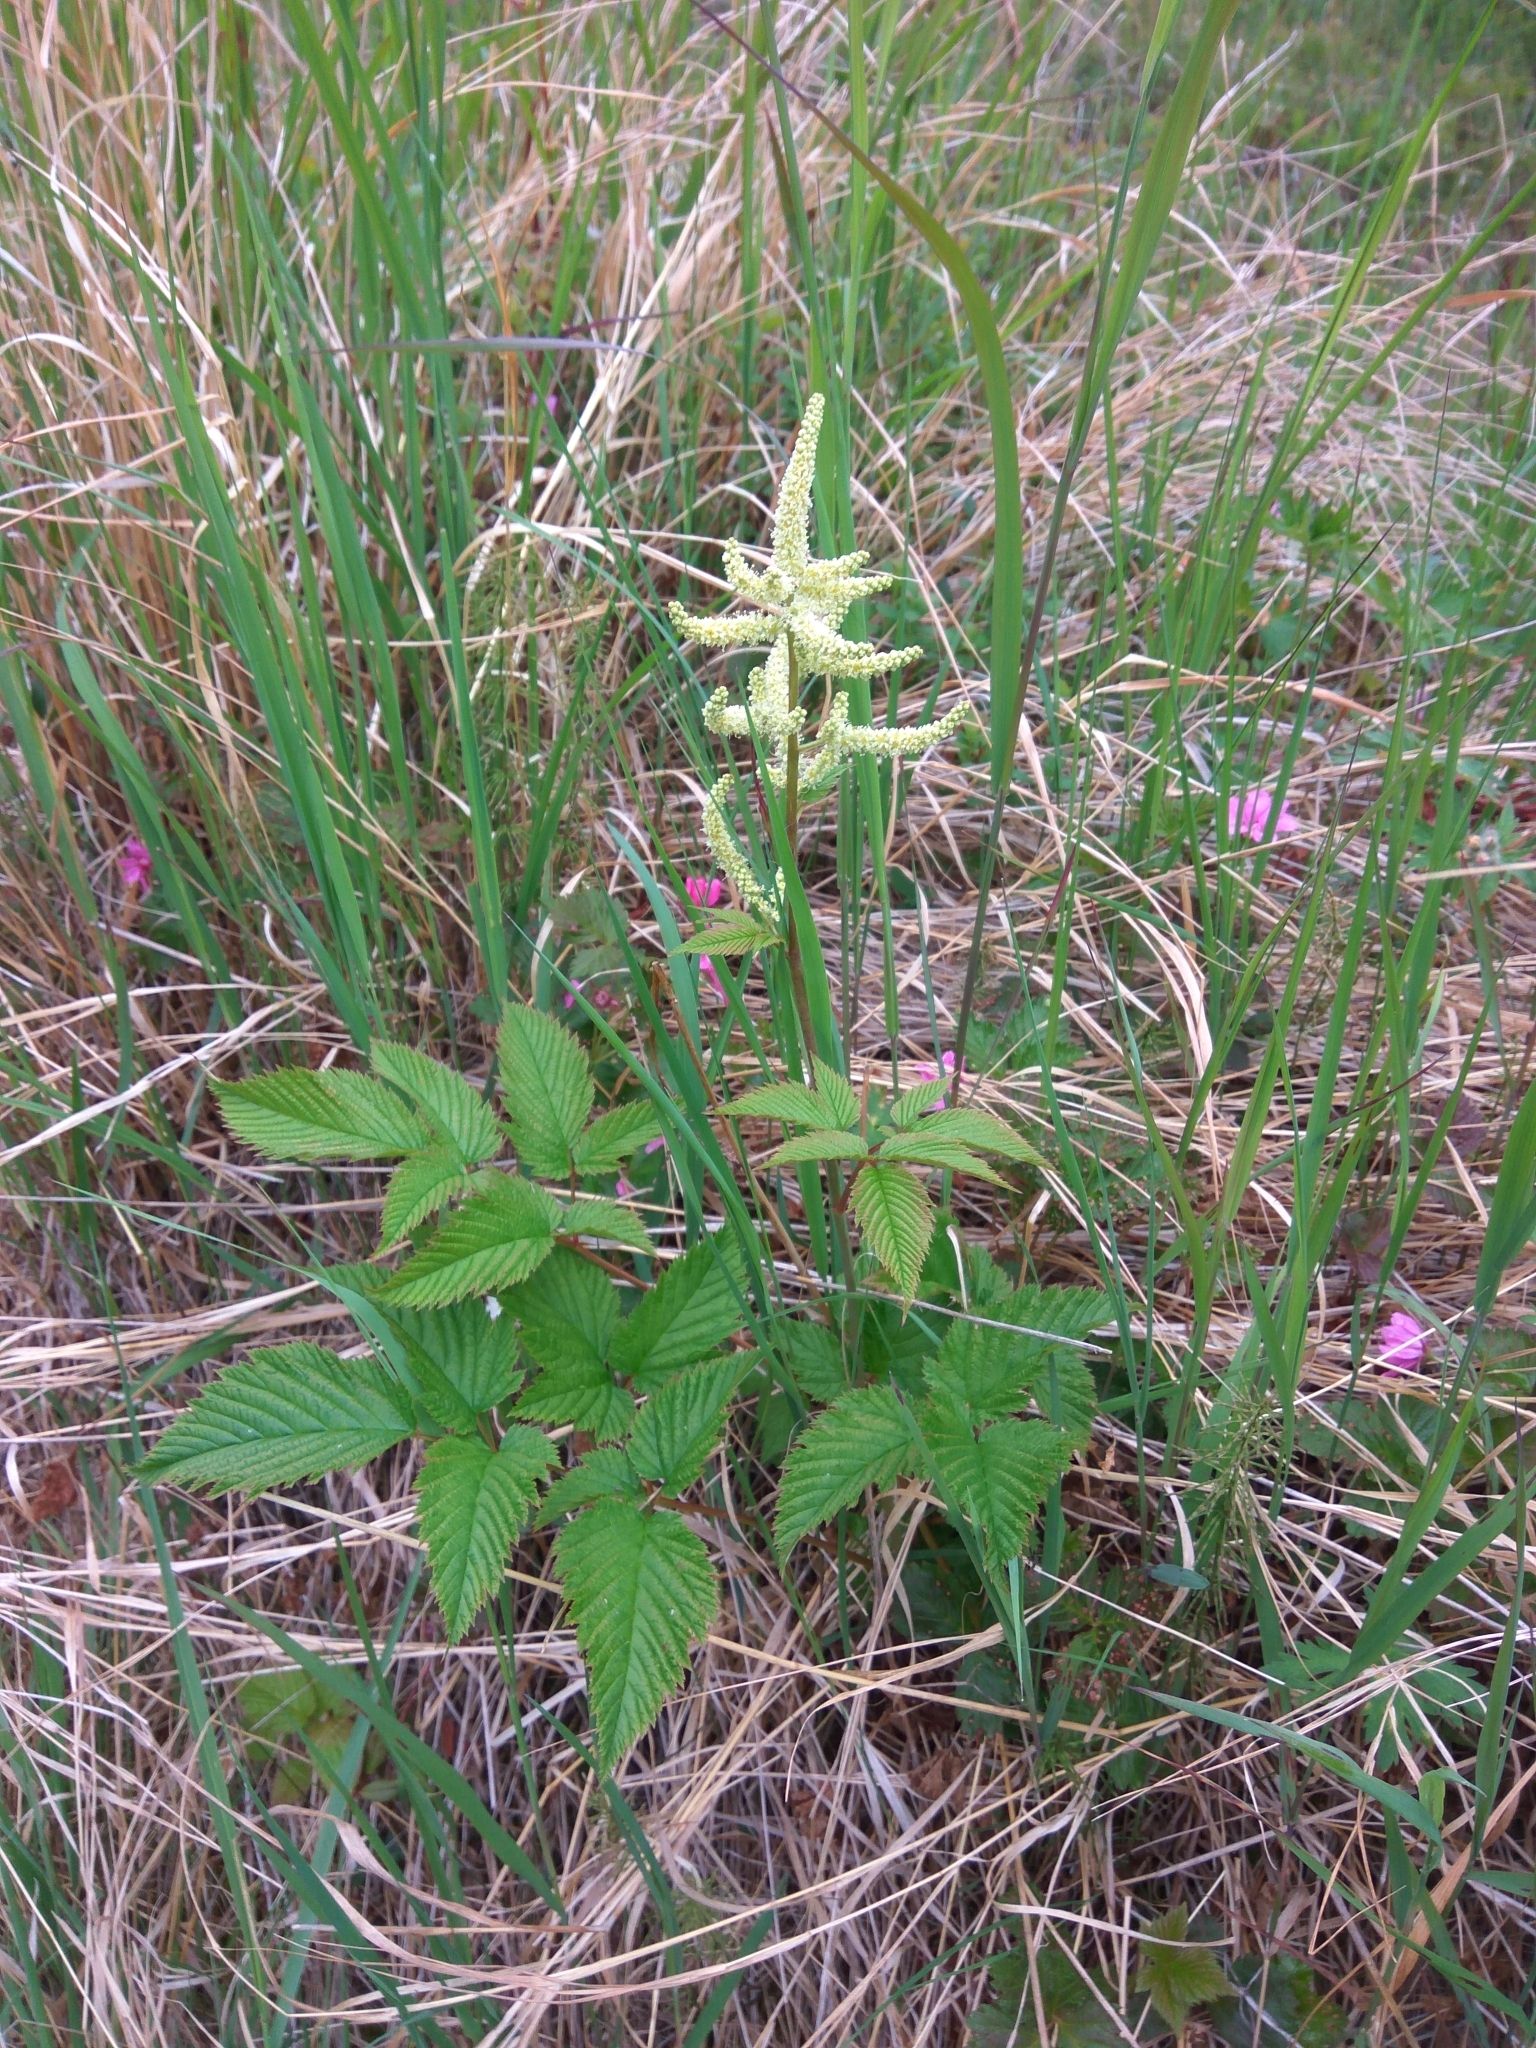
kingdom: Plantae
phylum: Tracheophyta
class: Magnoliopsida
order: Rosales
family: Rosaceae
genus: Aruncus
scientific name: Aruncus dioicus
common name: Buck's-beard
